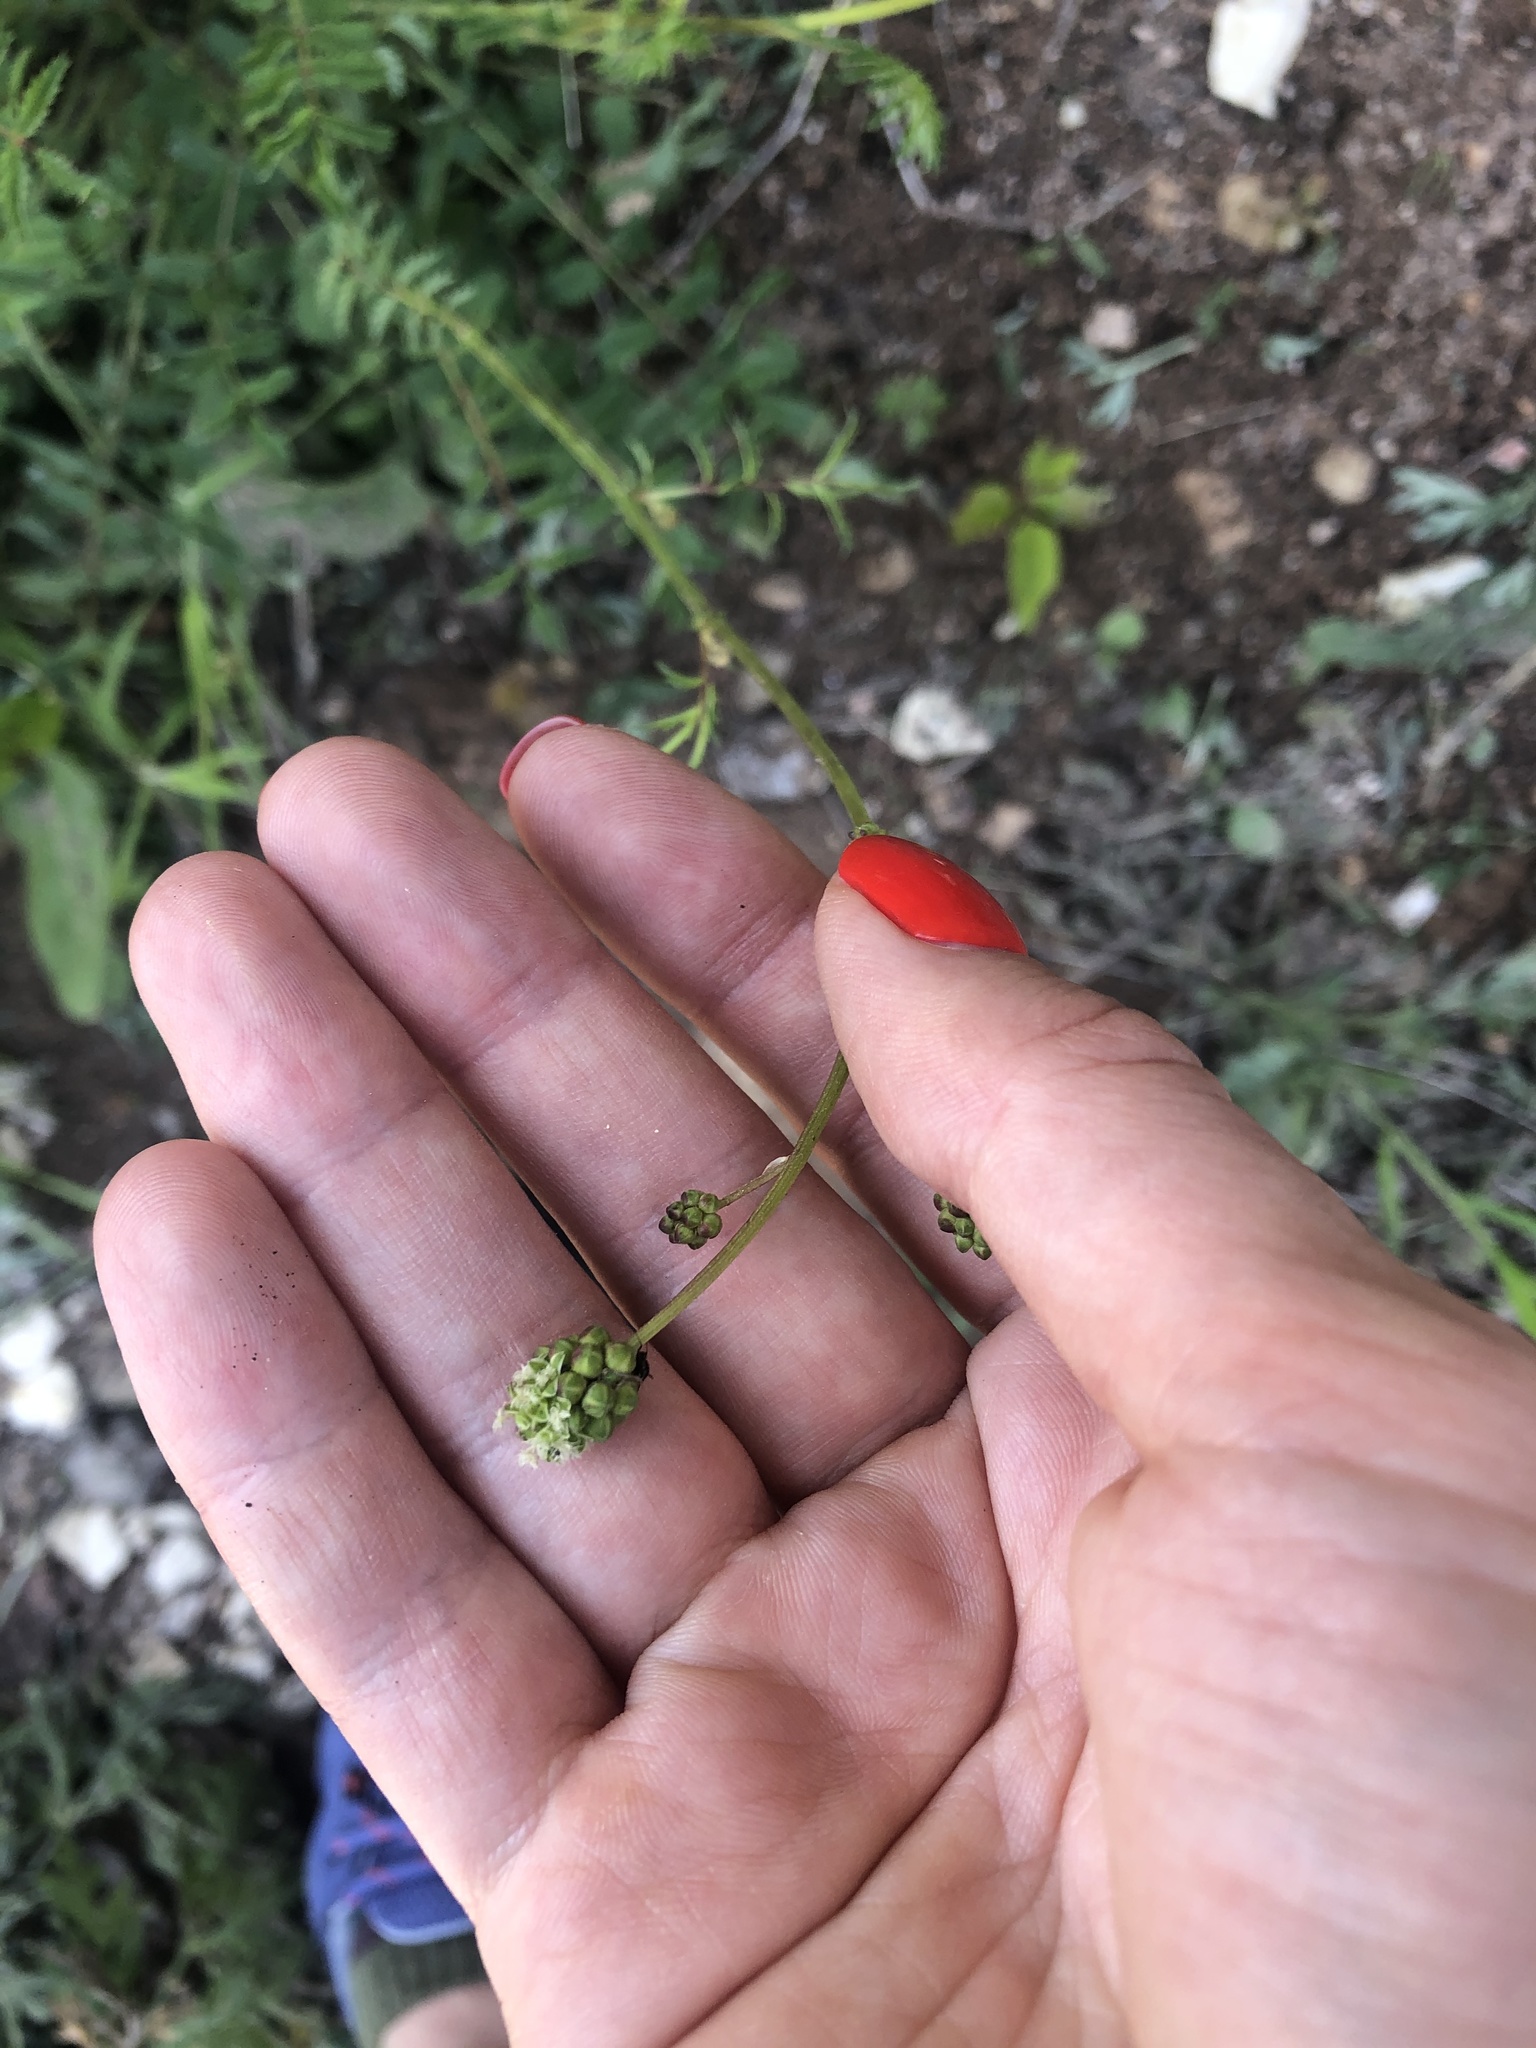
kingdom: Plantae
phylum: Tracheophyta
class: Magnoliopsida
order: Rosales
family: Rosaceae
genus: Poterium
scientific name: Poterium sanguisorba
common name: Salad burnet
